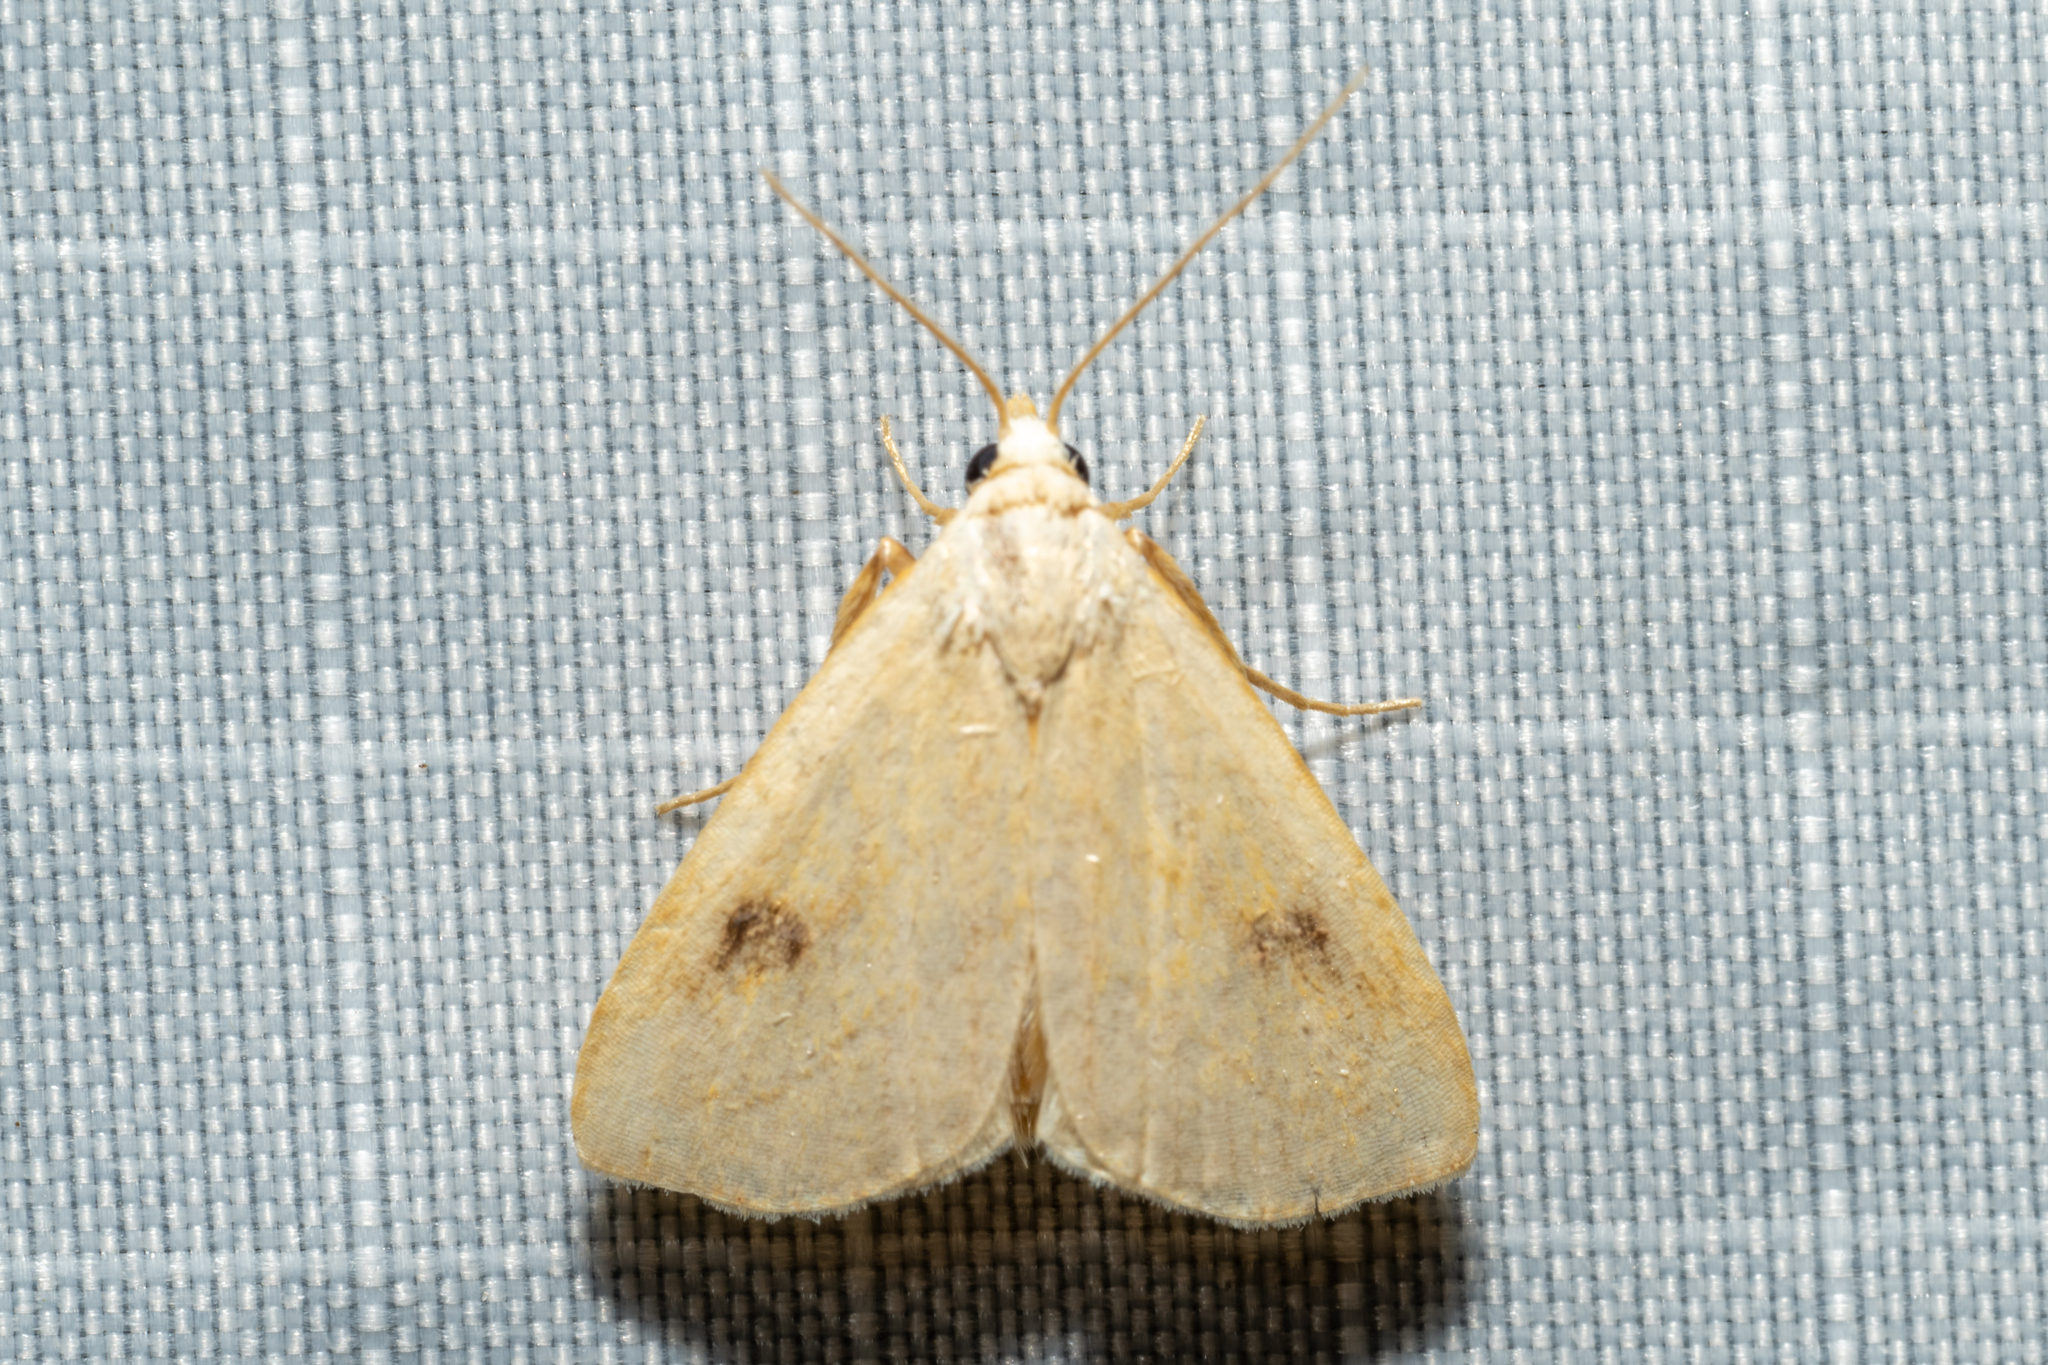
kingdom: Animalia
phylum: Arthropoda
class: Insecta
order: Lepidoptera
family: Erebidae
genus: Rivula
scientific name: Rivula propinqualis
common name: Spotted grass moth
